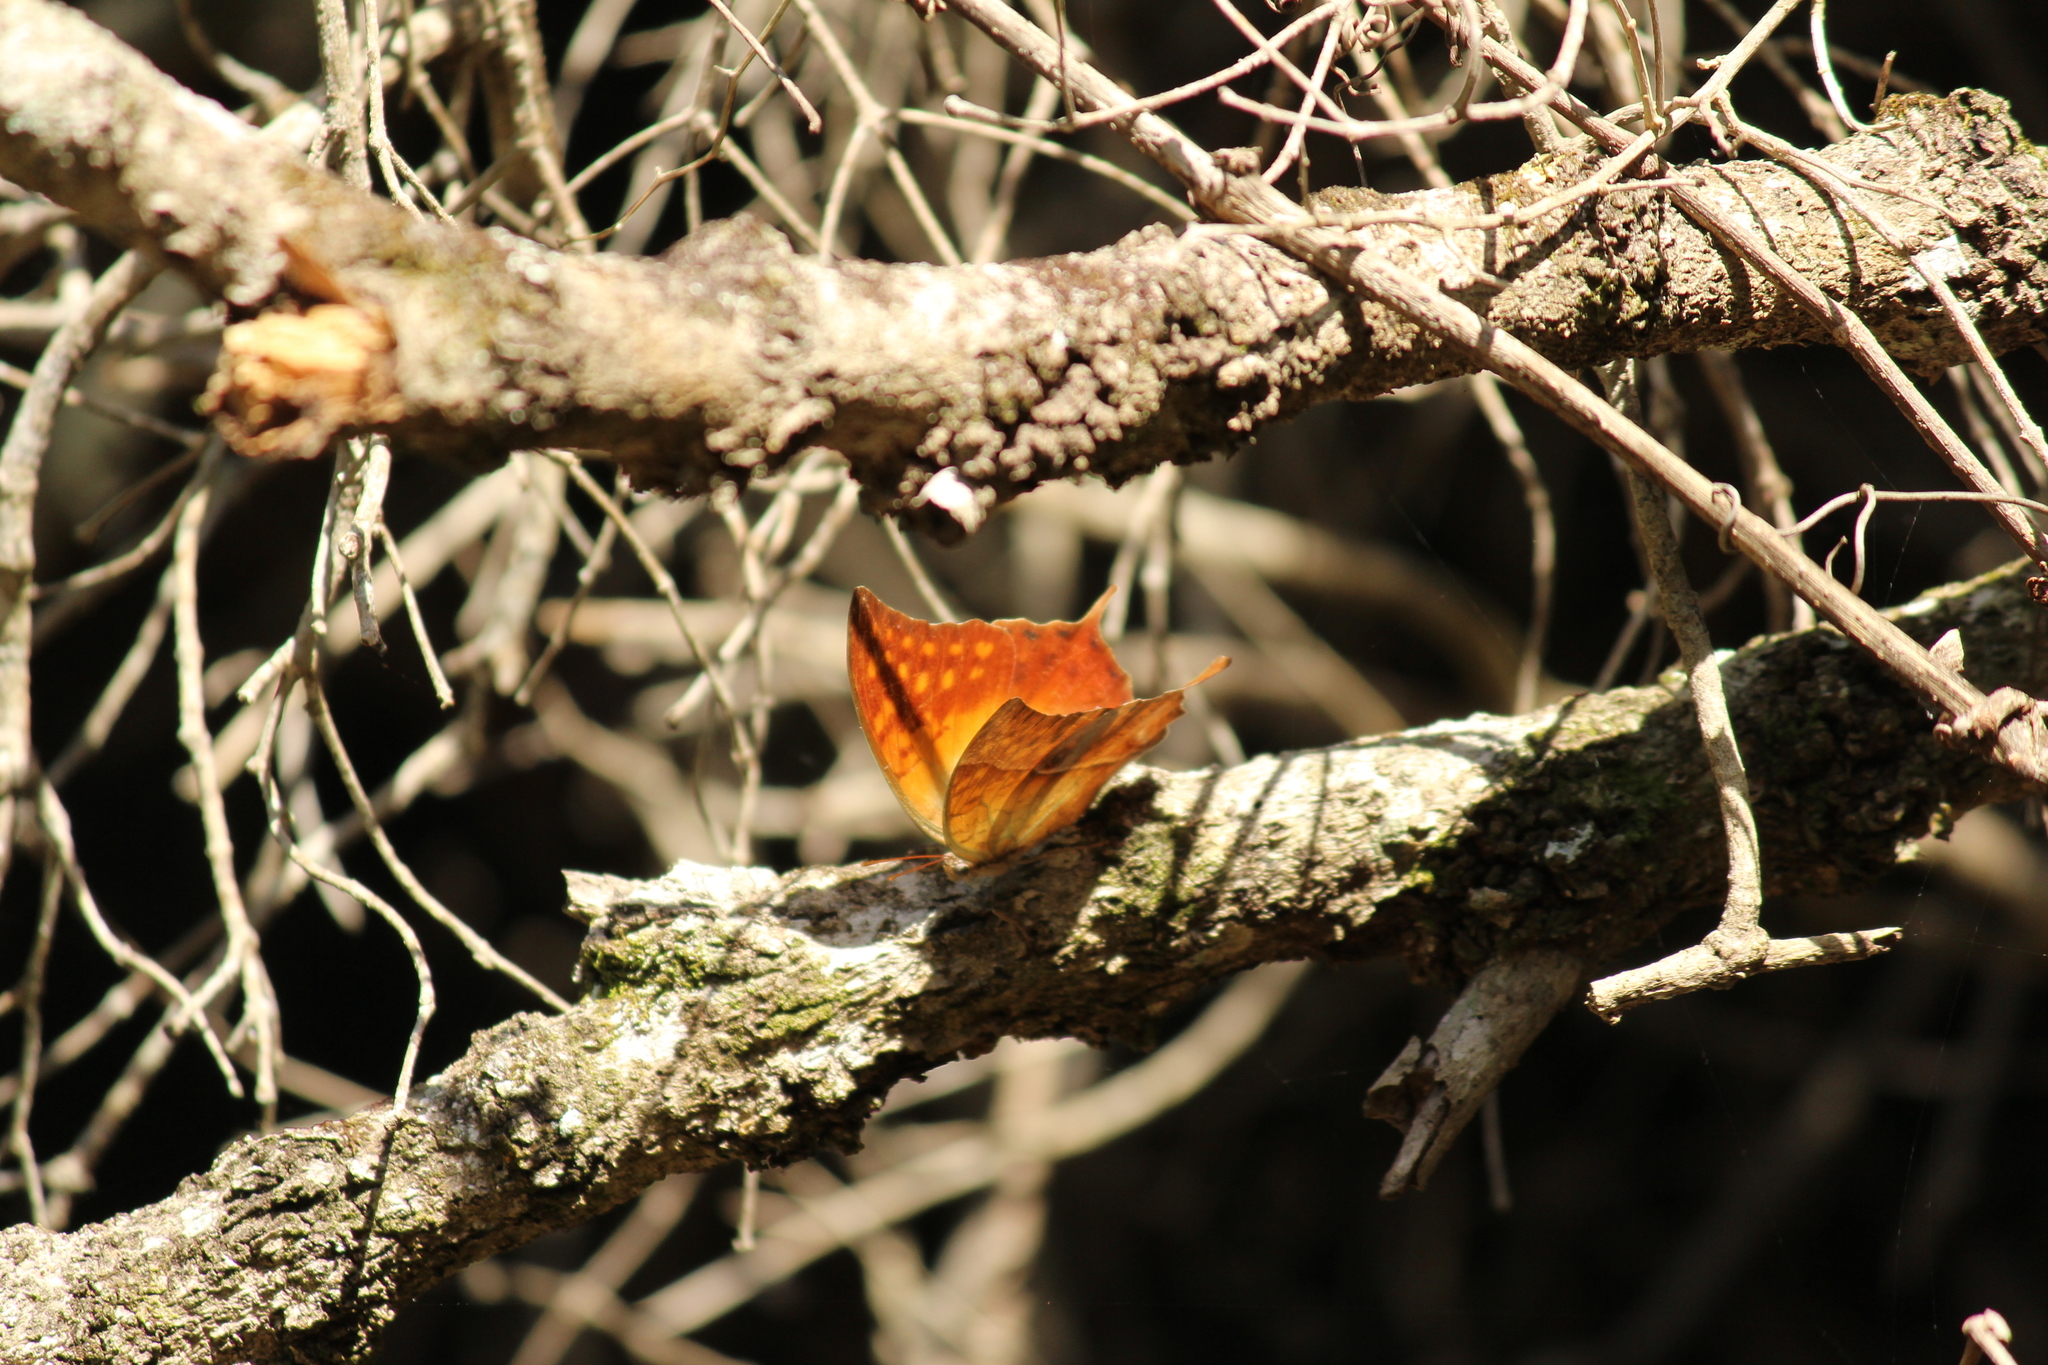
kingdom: Animalia
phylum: Arthropoda
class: Insecta
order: Lepidoptera
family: Nymphalidae
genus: Charaxes
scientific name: Charaxes varanes
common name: Common pearl charaxes
